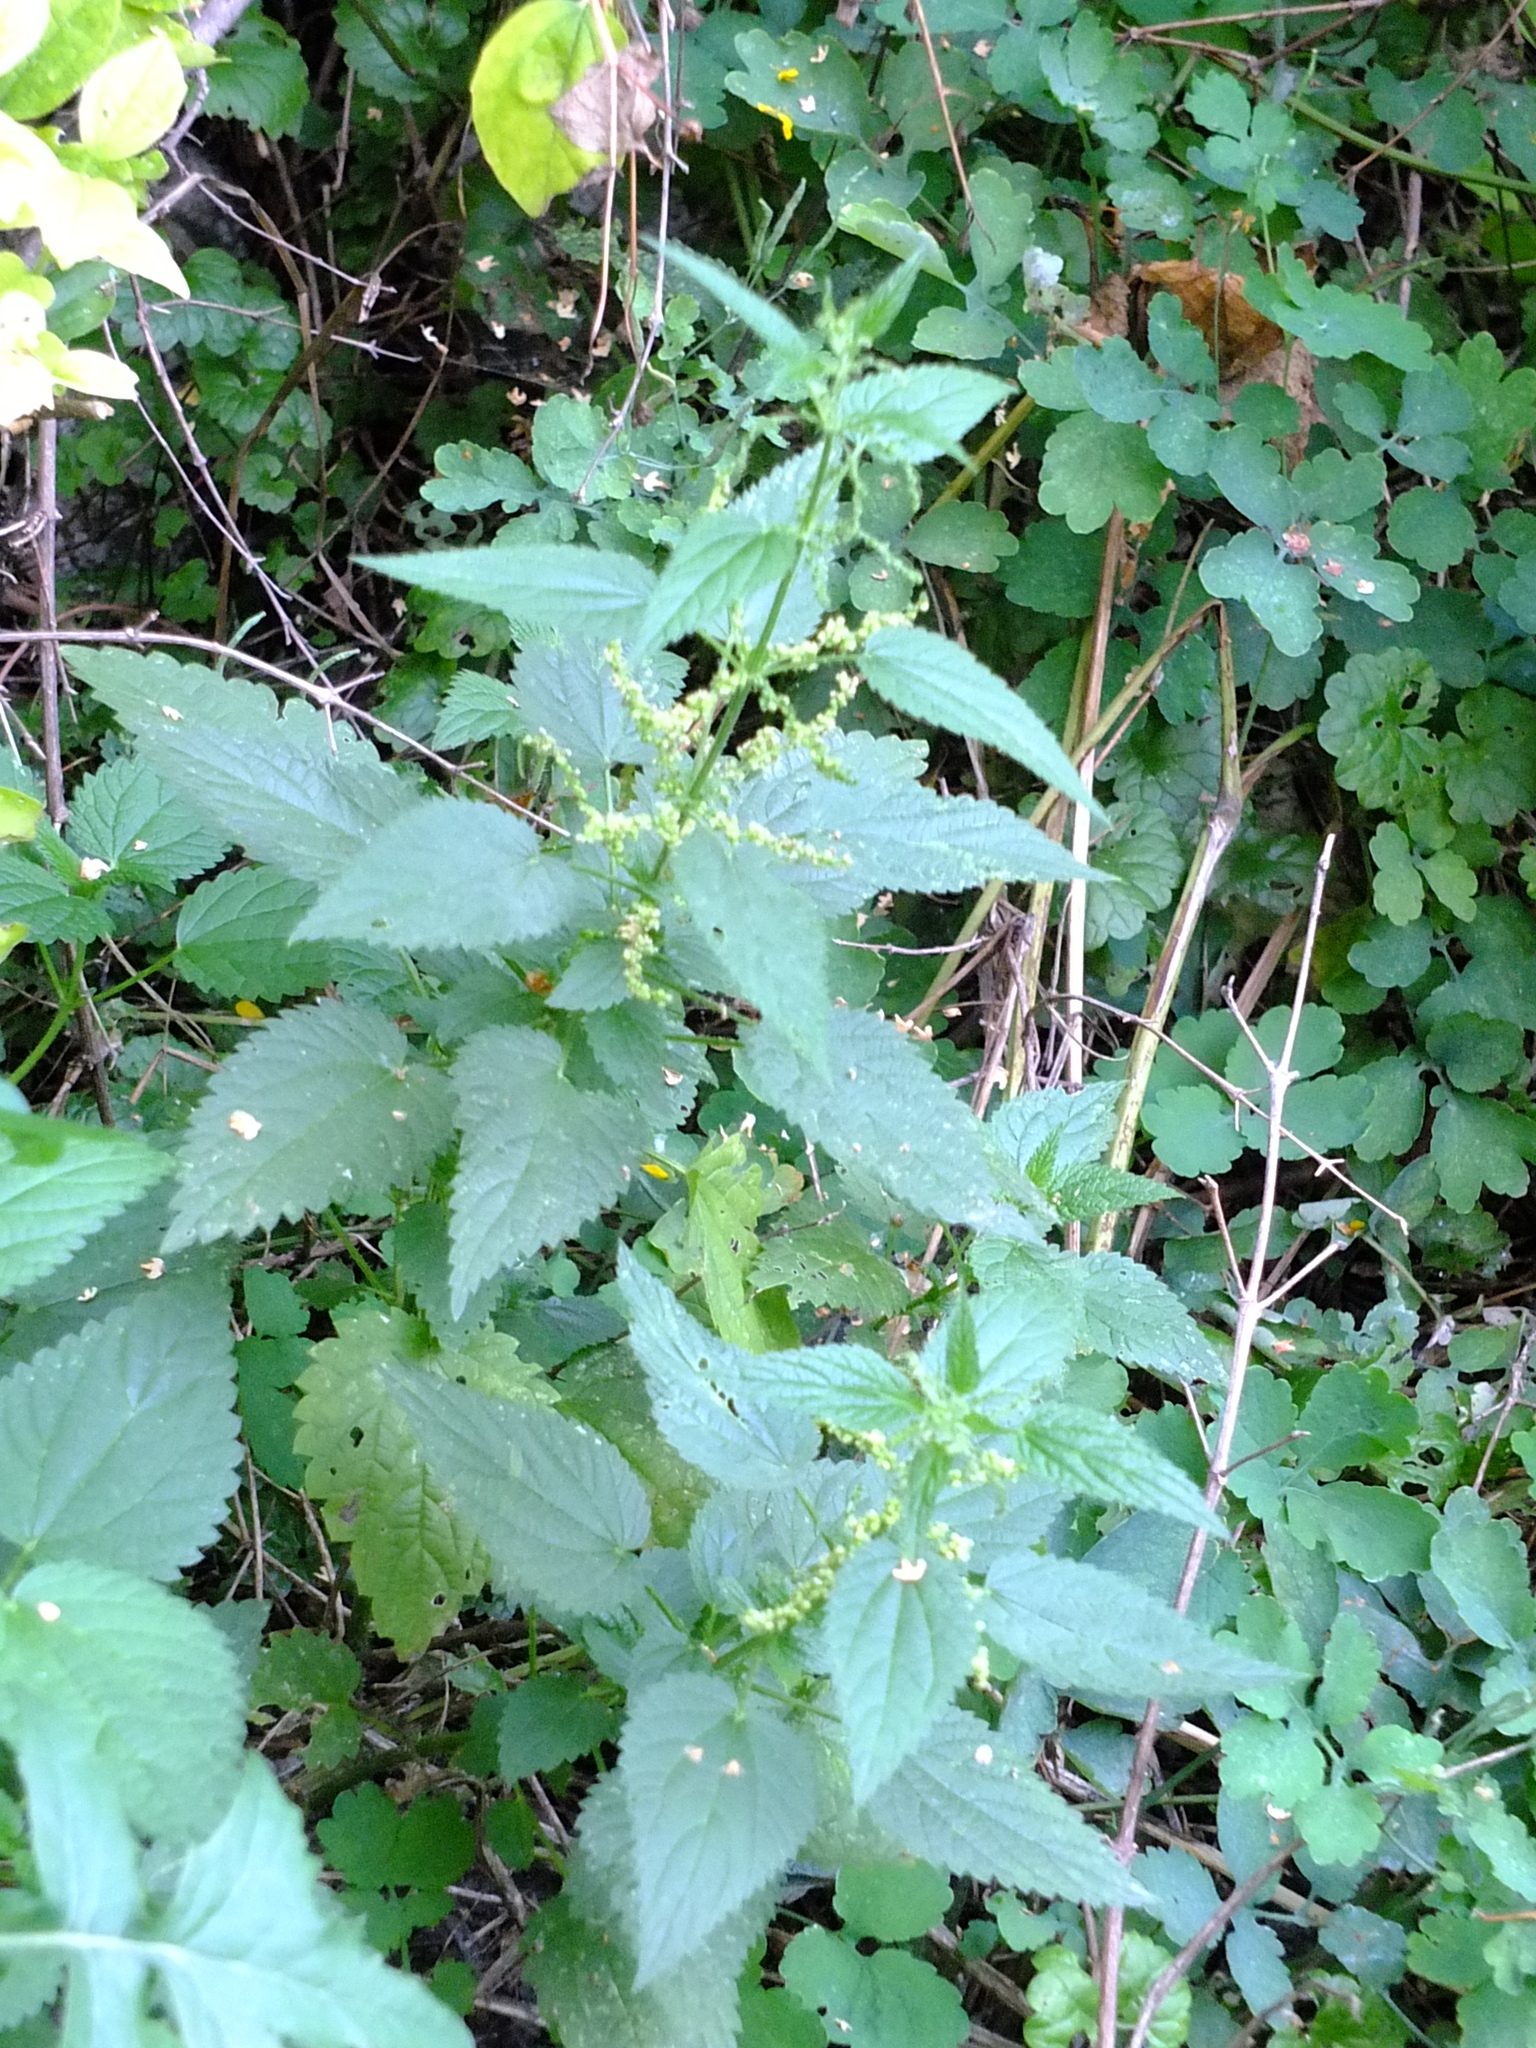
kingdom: Plantae
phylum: Tracheophyta
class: Magnoliopsida
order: Rosales
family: Urticaceae
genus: Urtica
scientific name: Urtica dioica
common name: Common nettle
